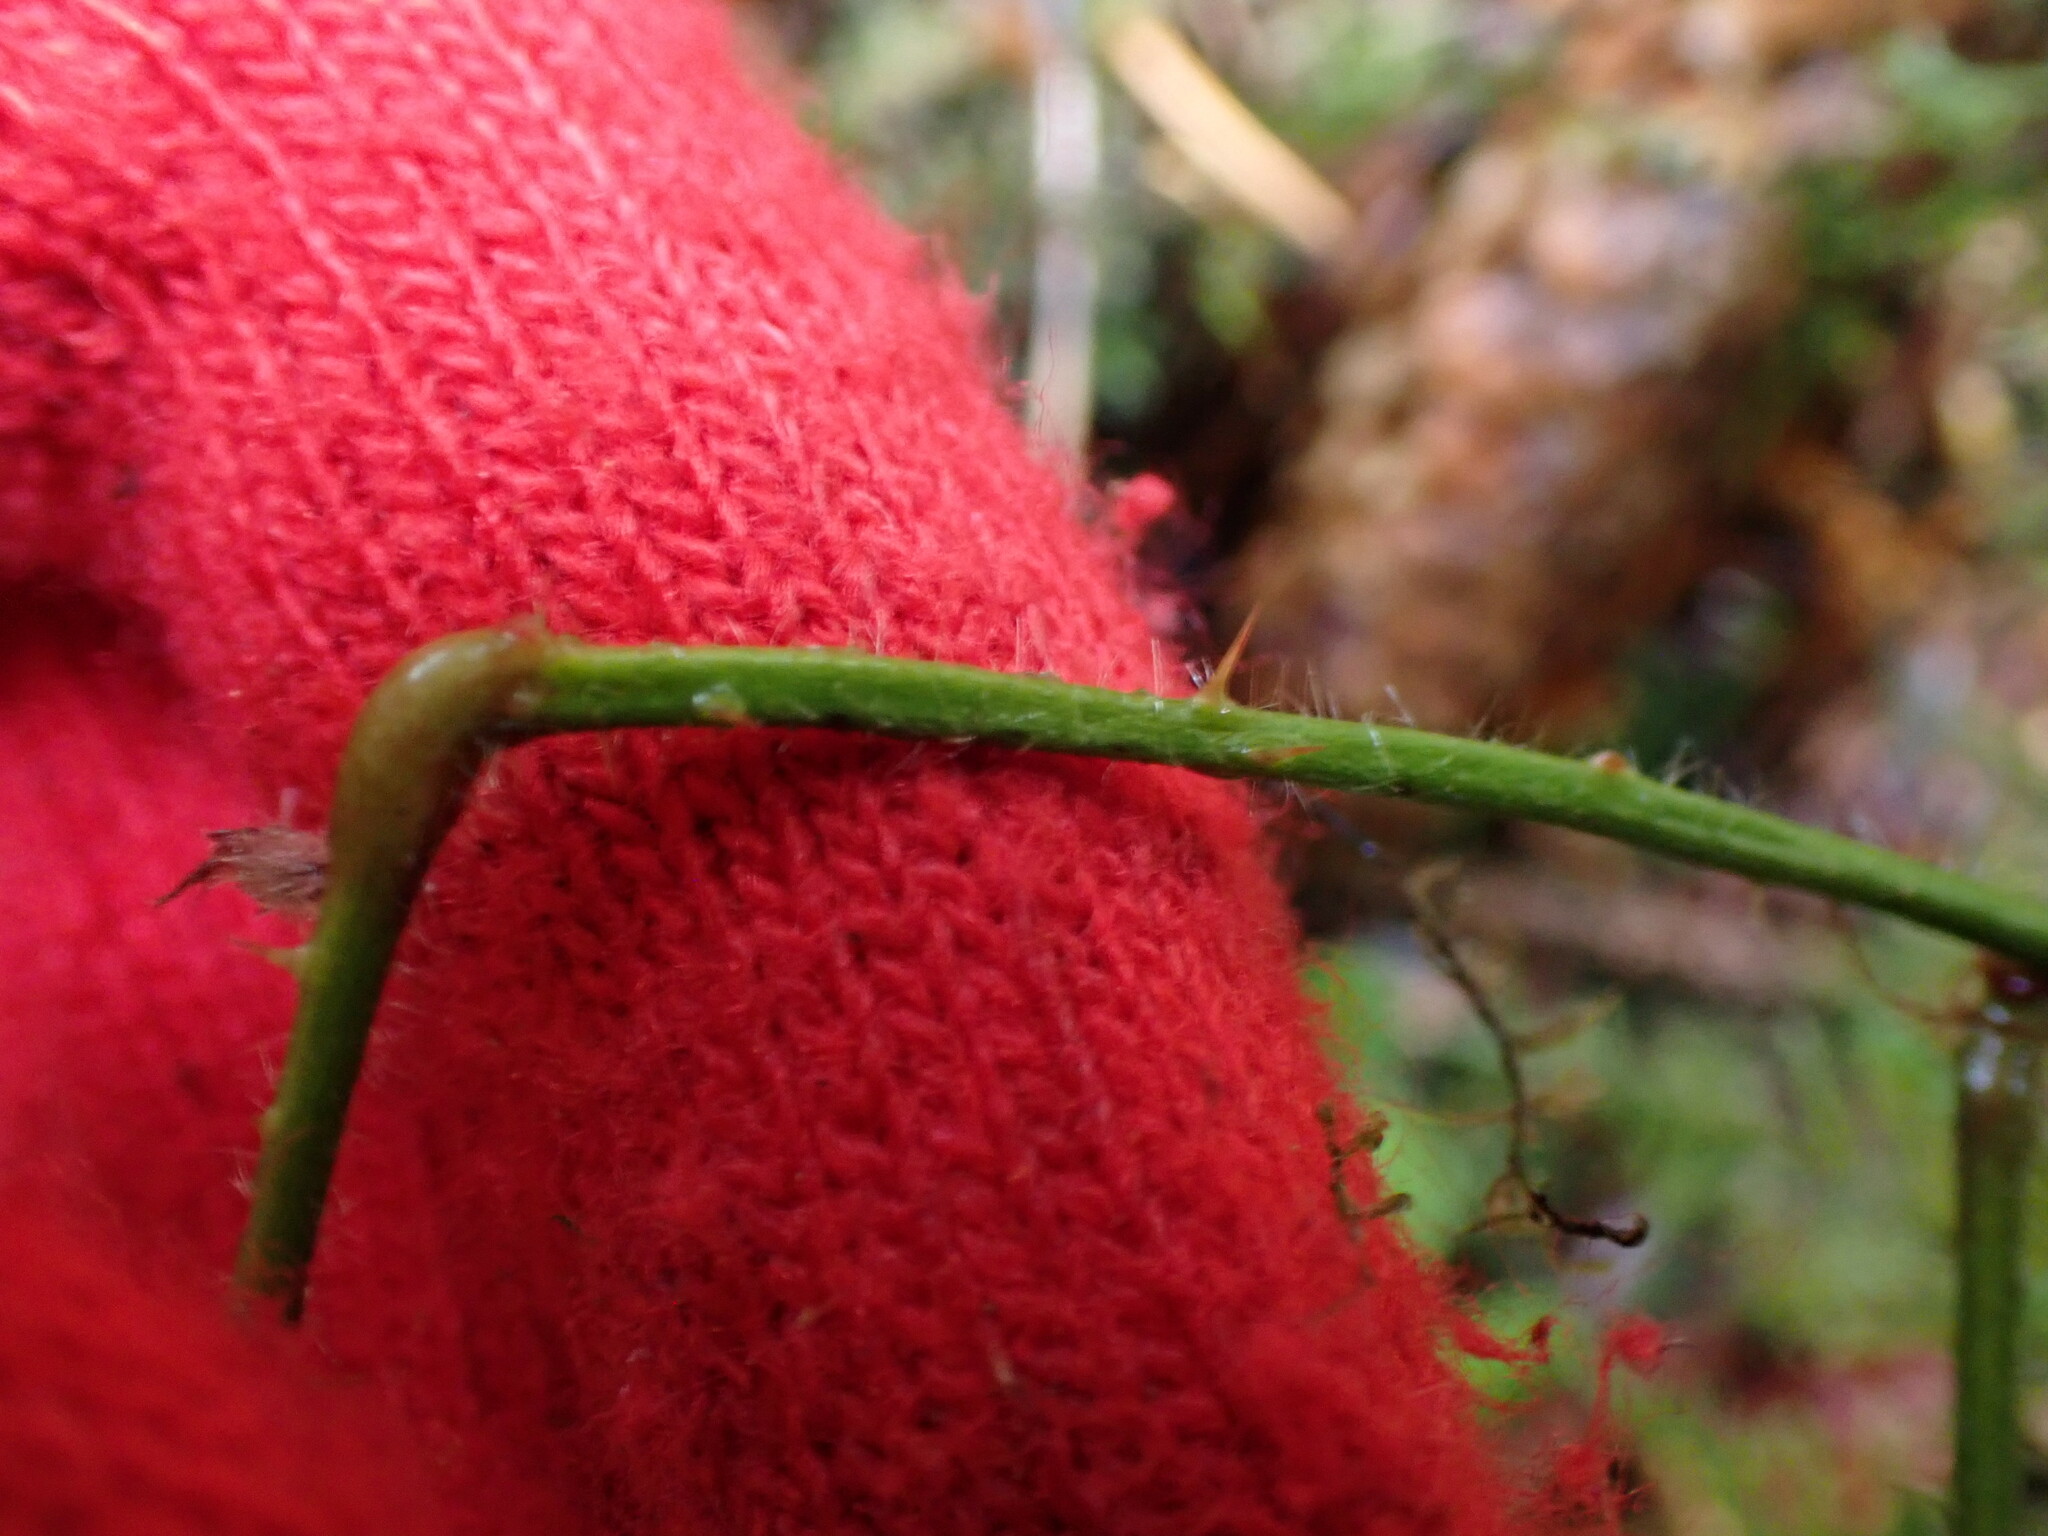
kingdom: Plantae
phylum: Tracheophyta
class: Magnoliopsida
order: Rosales
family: Rosaceae
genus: Rubus
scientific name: Rubus laciniatus
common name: Evergreen blackberry
